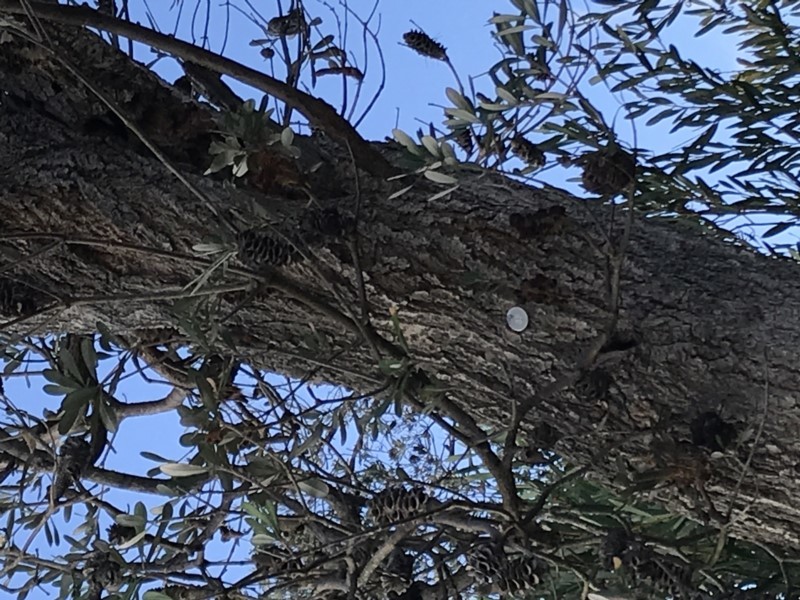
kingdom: Plantae
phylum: Tracheophyta
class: Magnoliopsida
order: Proteales
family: Proteaceae
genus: Banksia
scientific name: Banksia integrifolia
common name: White-honeysuckle
